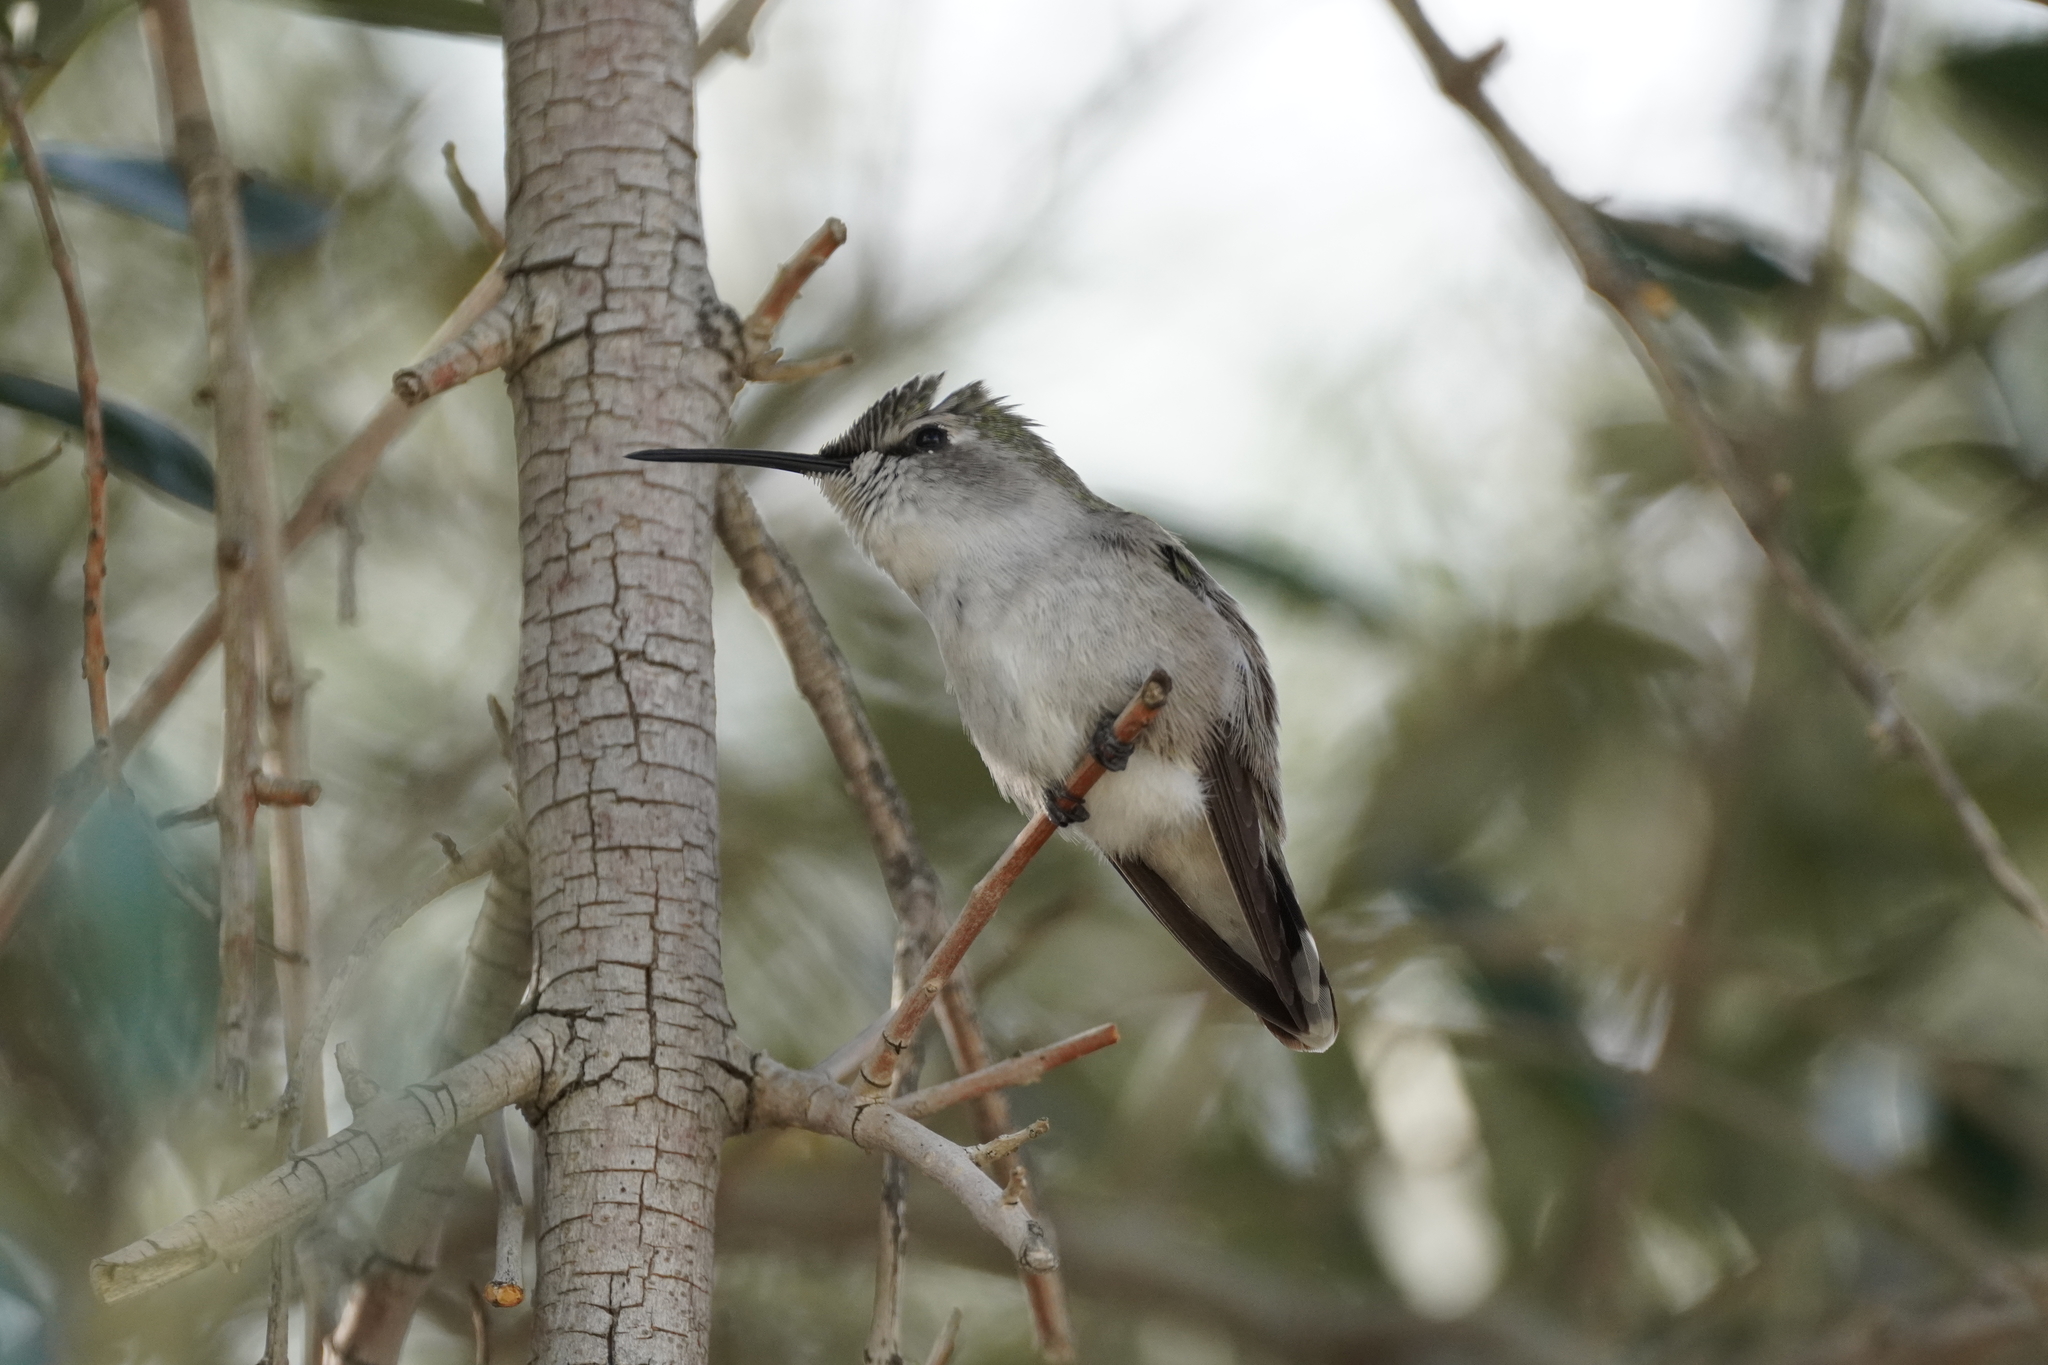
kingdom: Animalia
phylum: Chordata
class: Aves
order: Apodiformes
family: Trochilidae
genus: Calypte
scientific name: Calypte costae
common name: Costa's hummingbird
